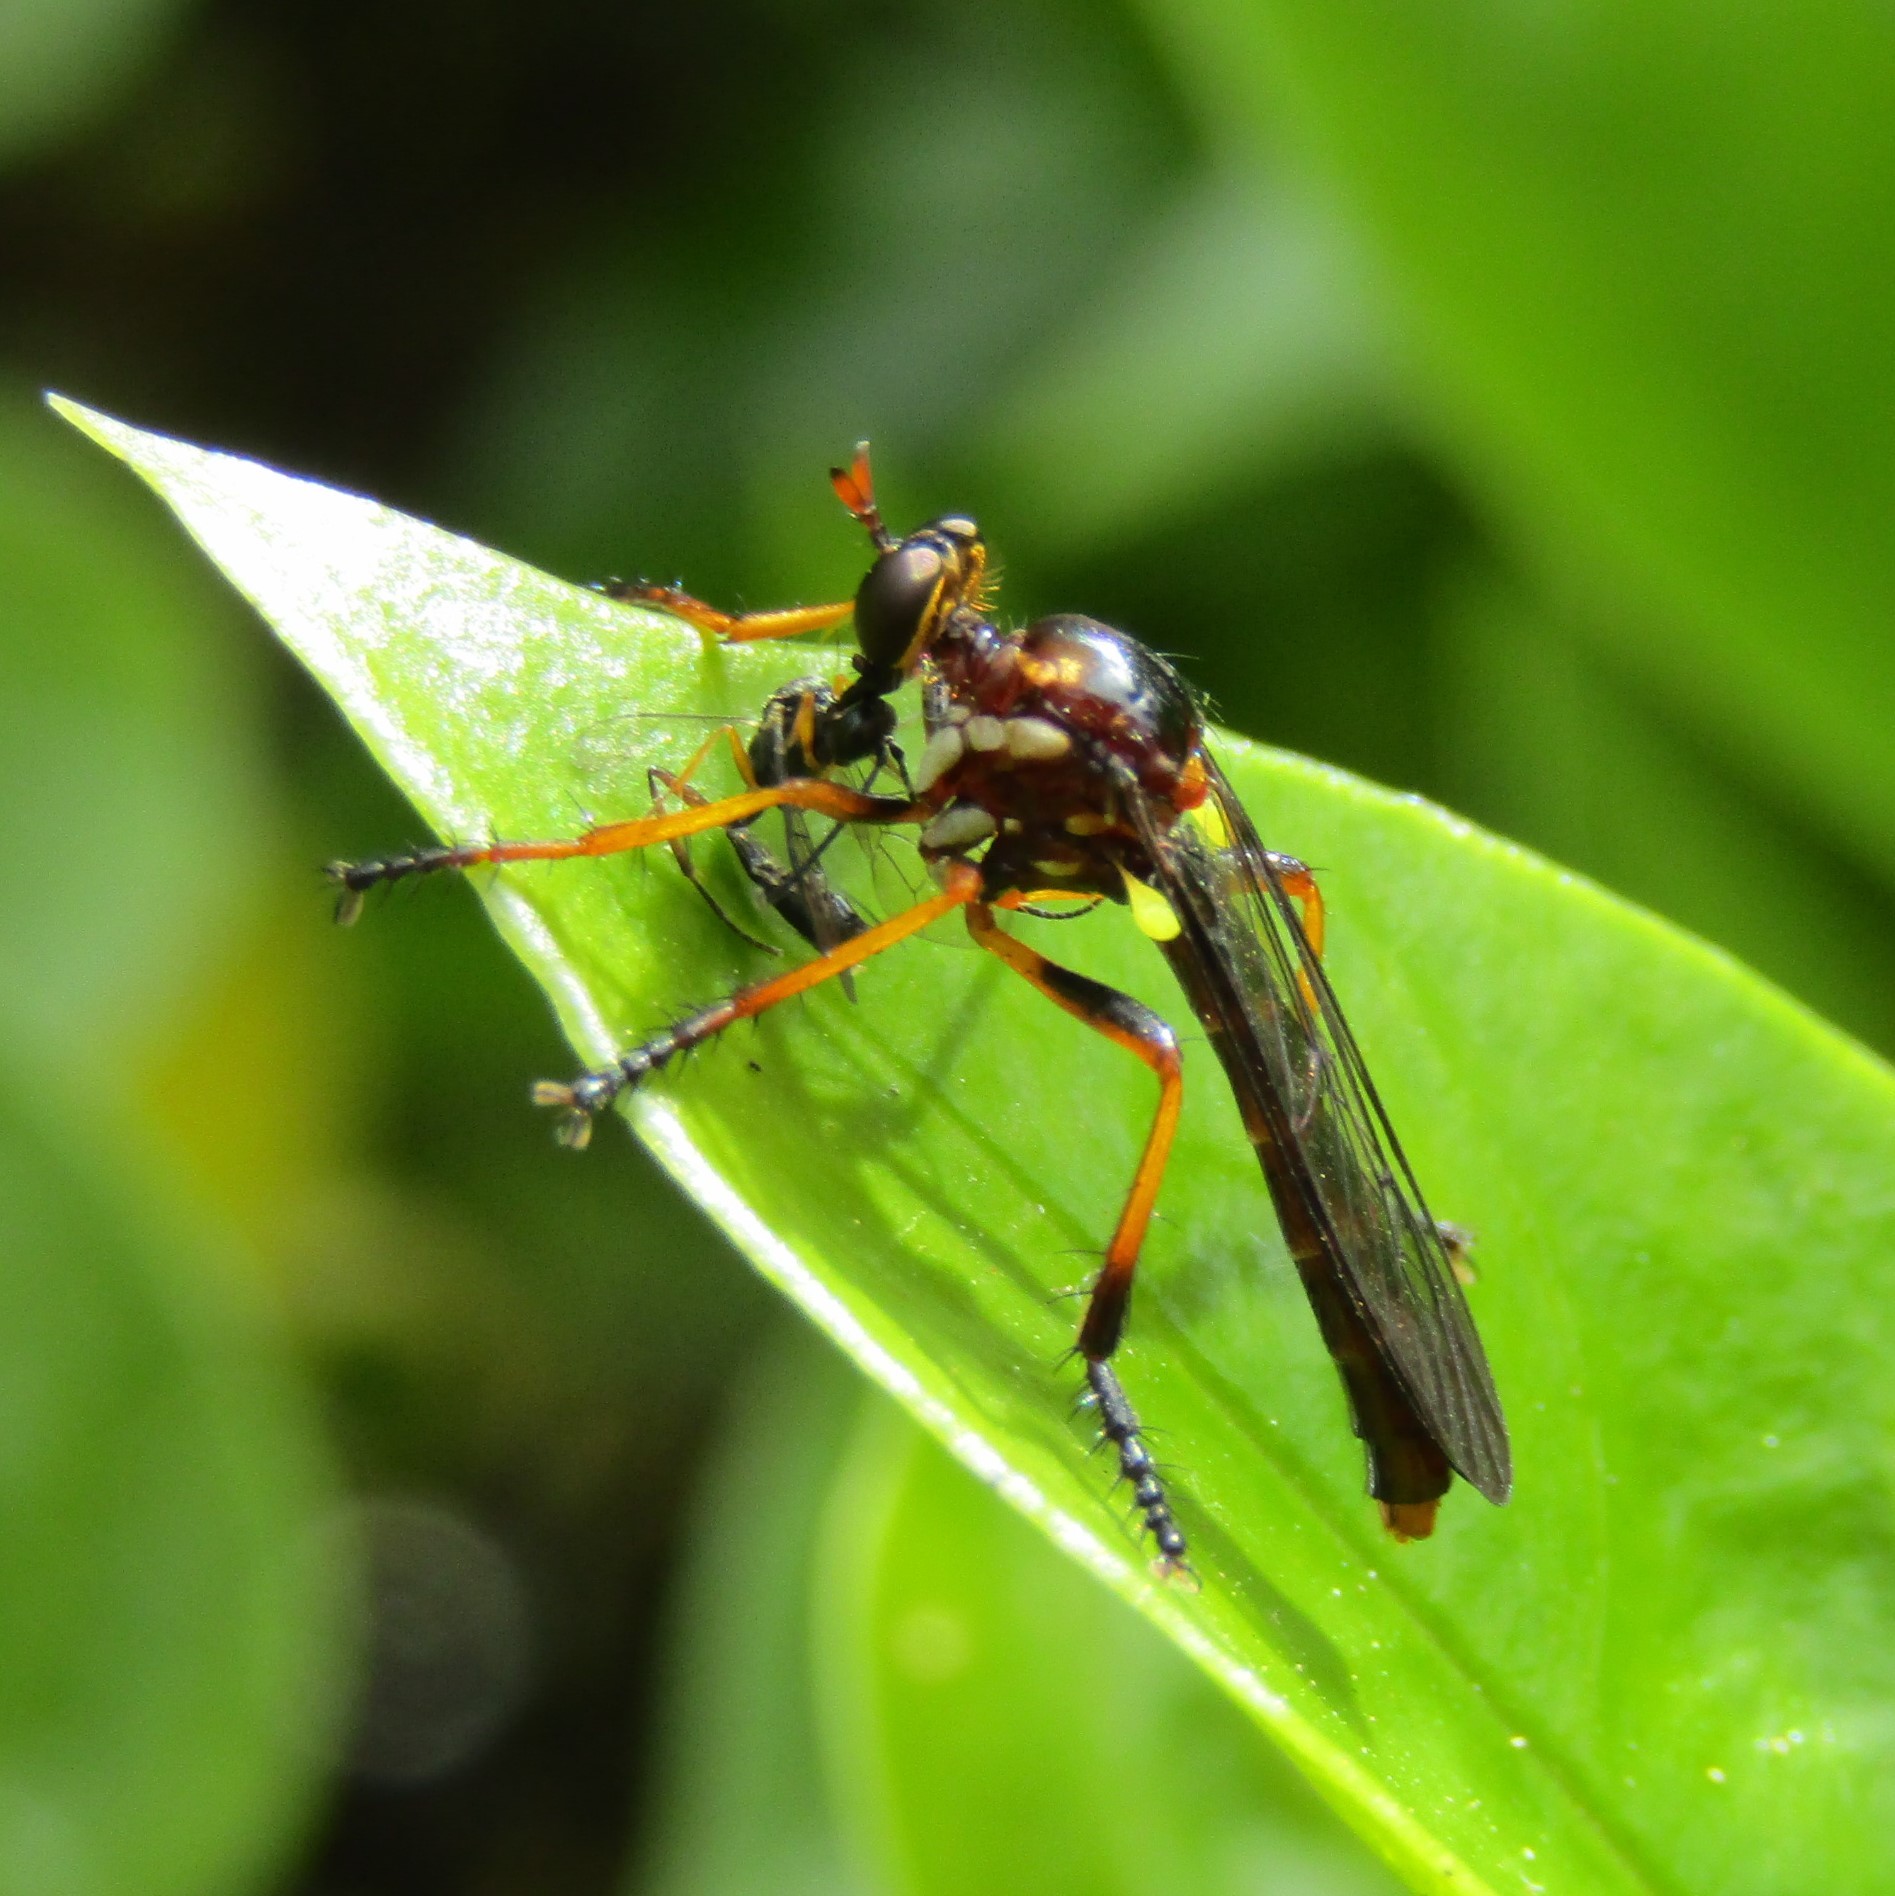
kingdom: Animalia
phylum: Arthropoda
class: Insecta
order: Diptera
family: Asilidae
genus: Saropogon
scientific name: Saropogon fascipes
